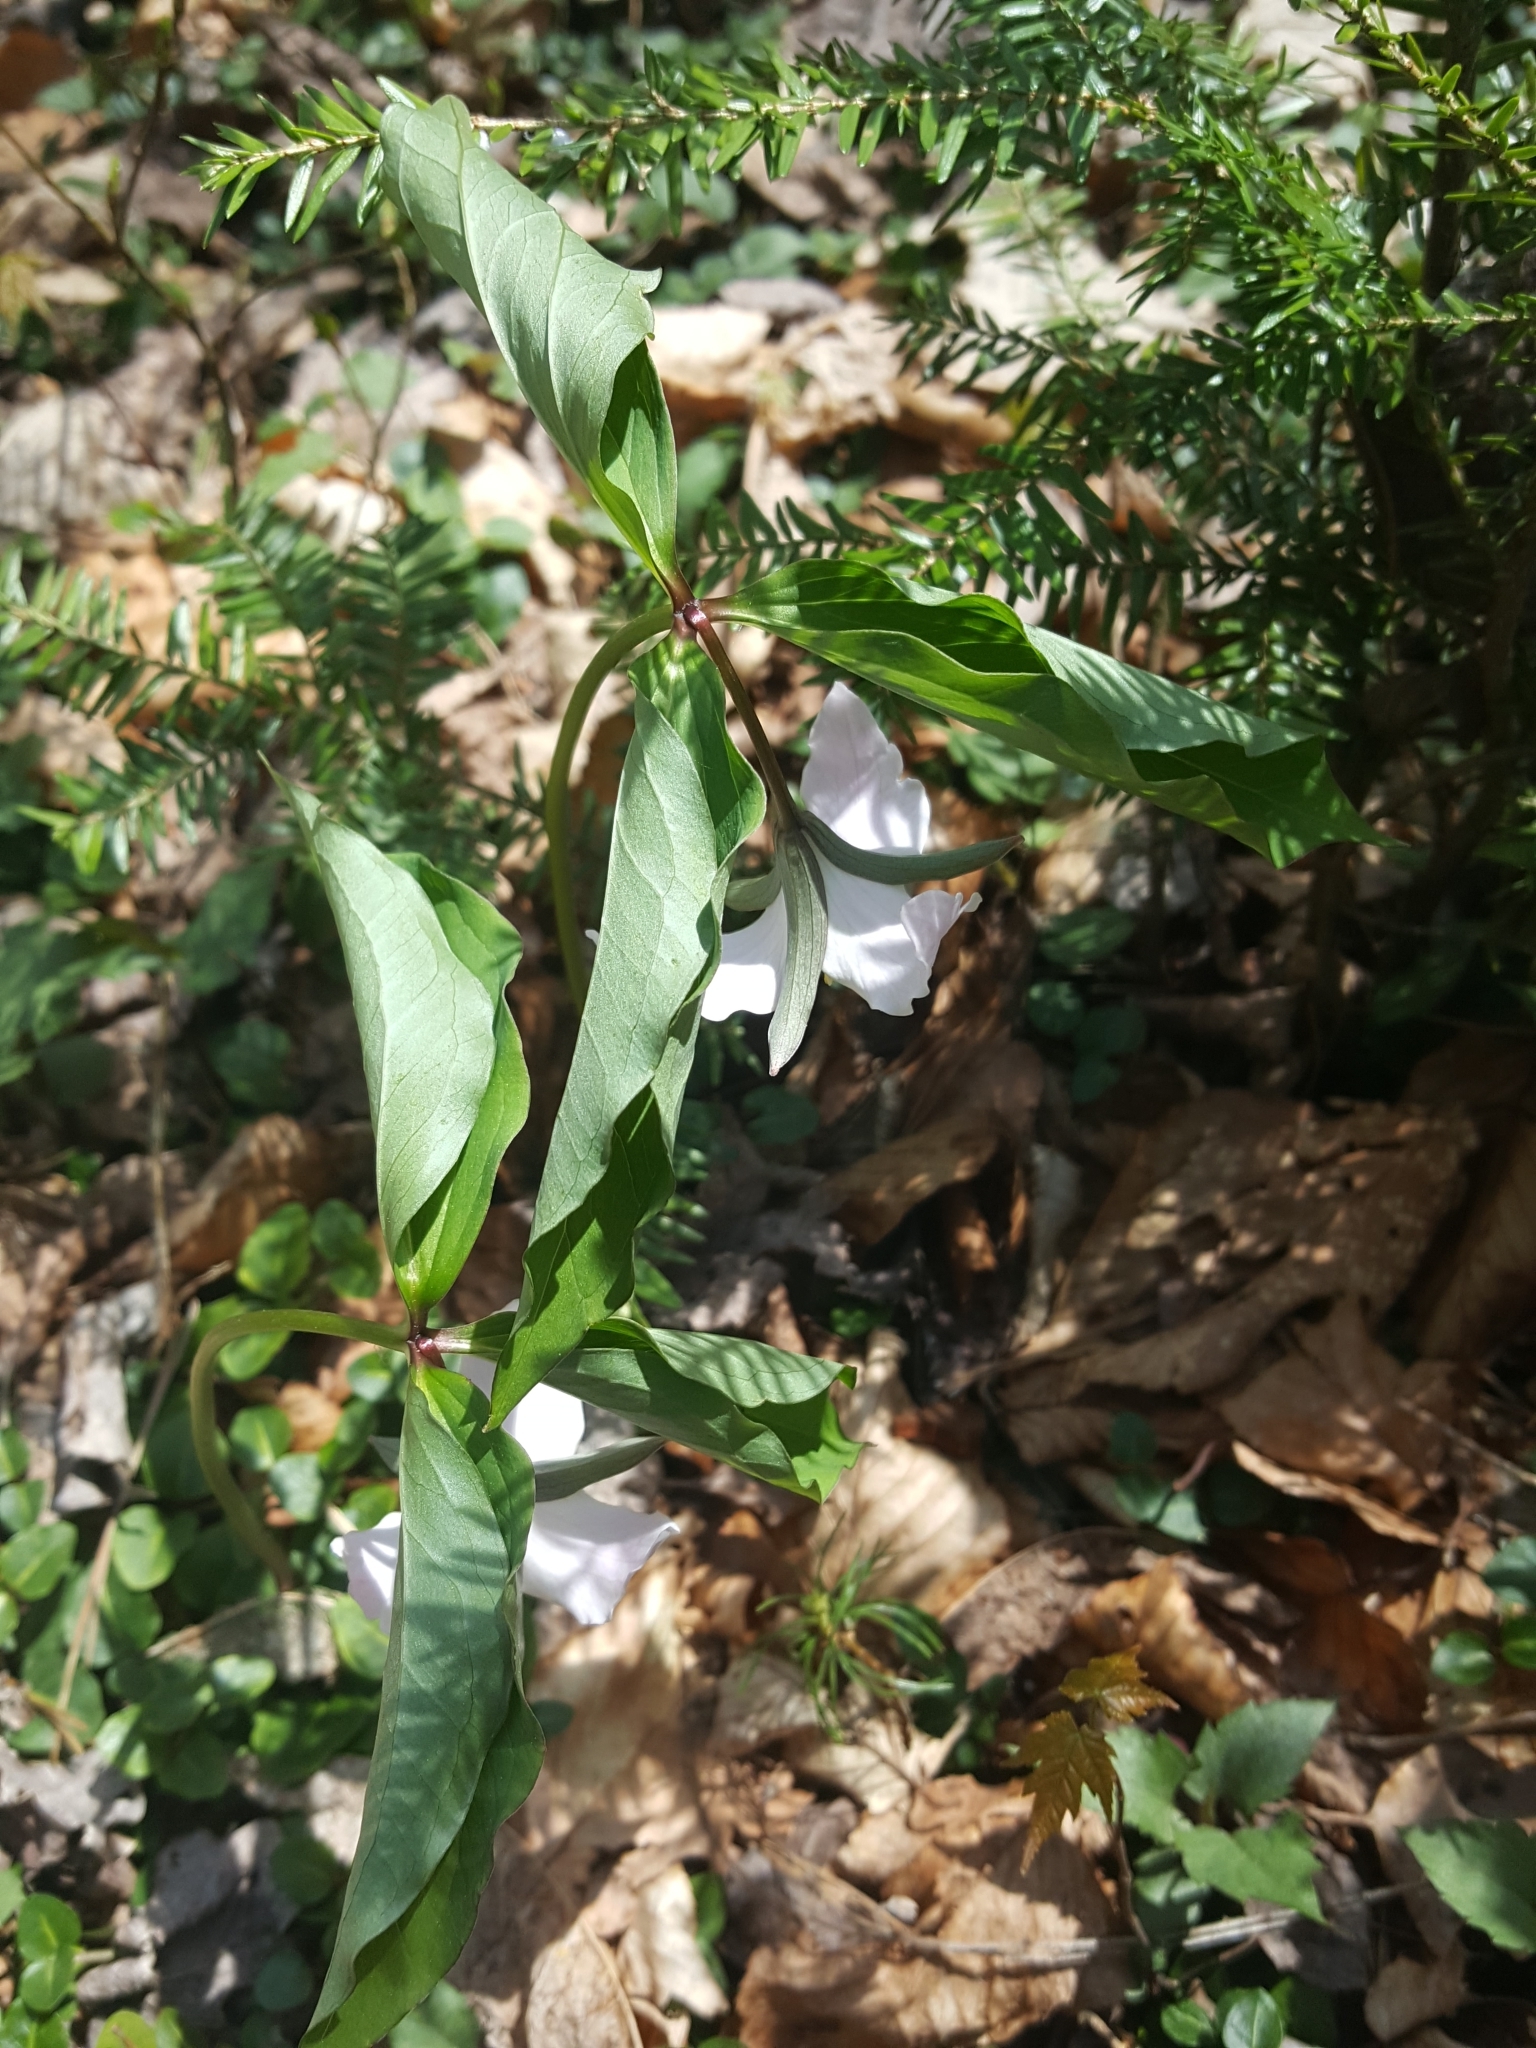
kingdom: Plantae
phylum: Tracheophyta
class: Liliopsida
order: Liliales
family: Melanthiaceae
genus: Trillium
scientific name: Trillium catesbaei
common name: Bashful trillium
